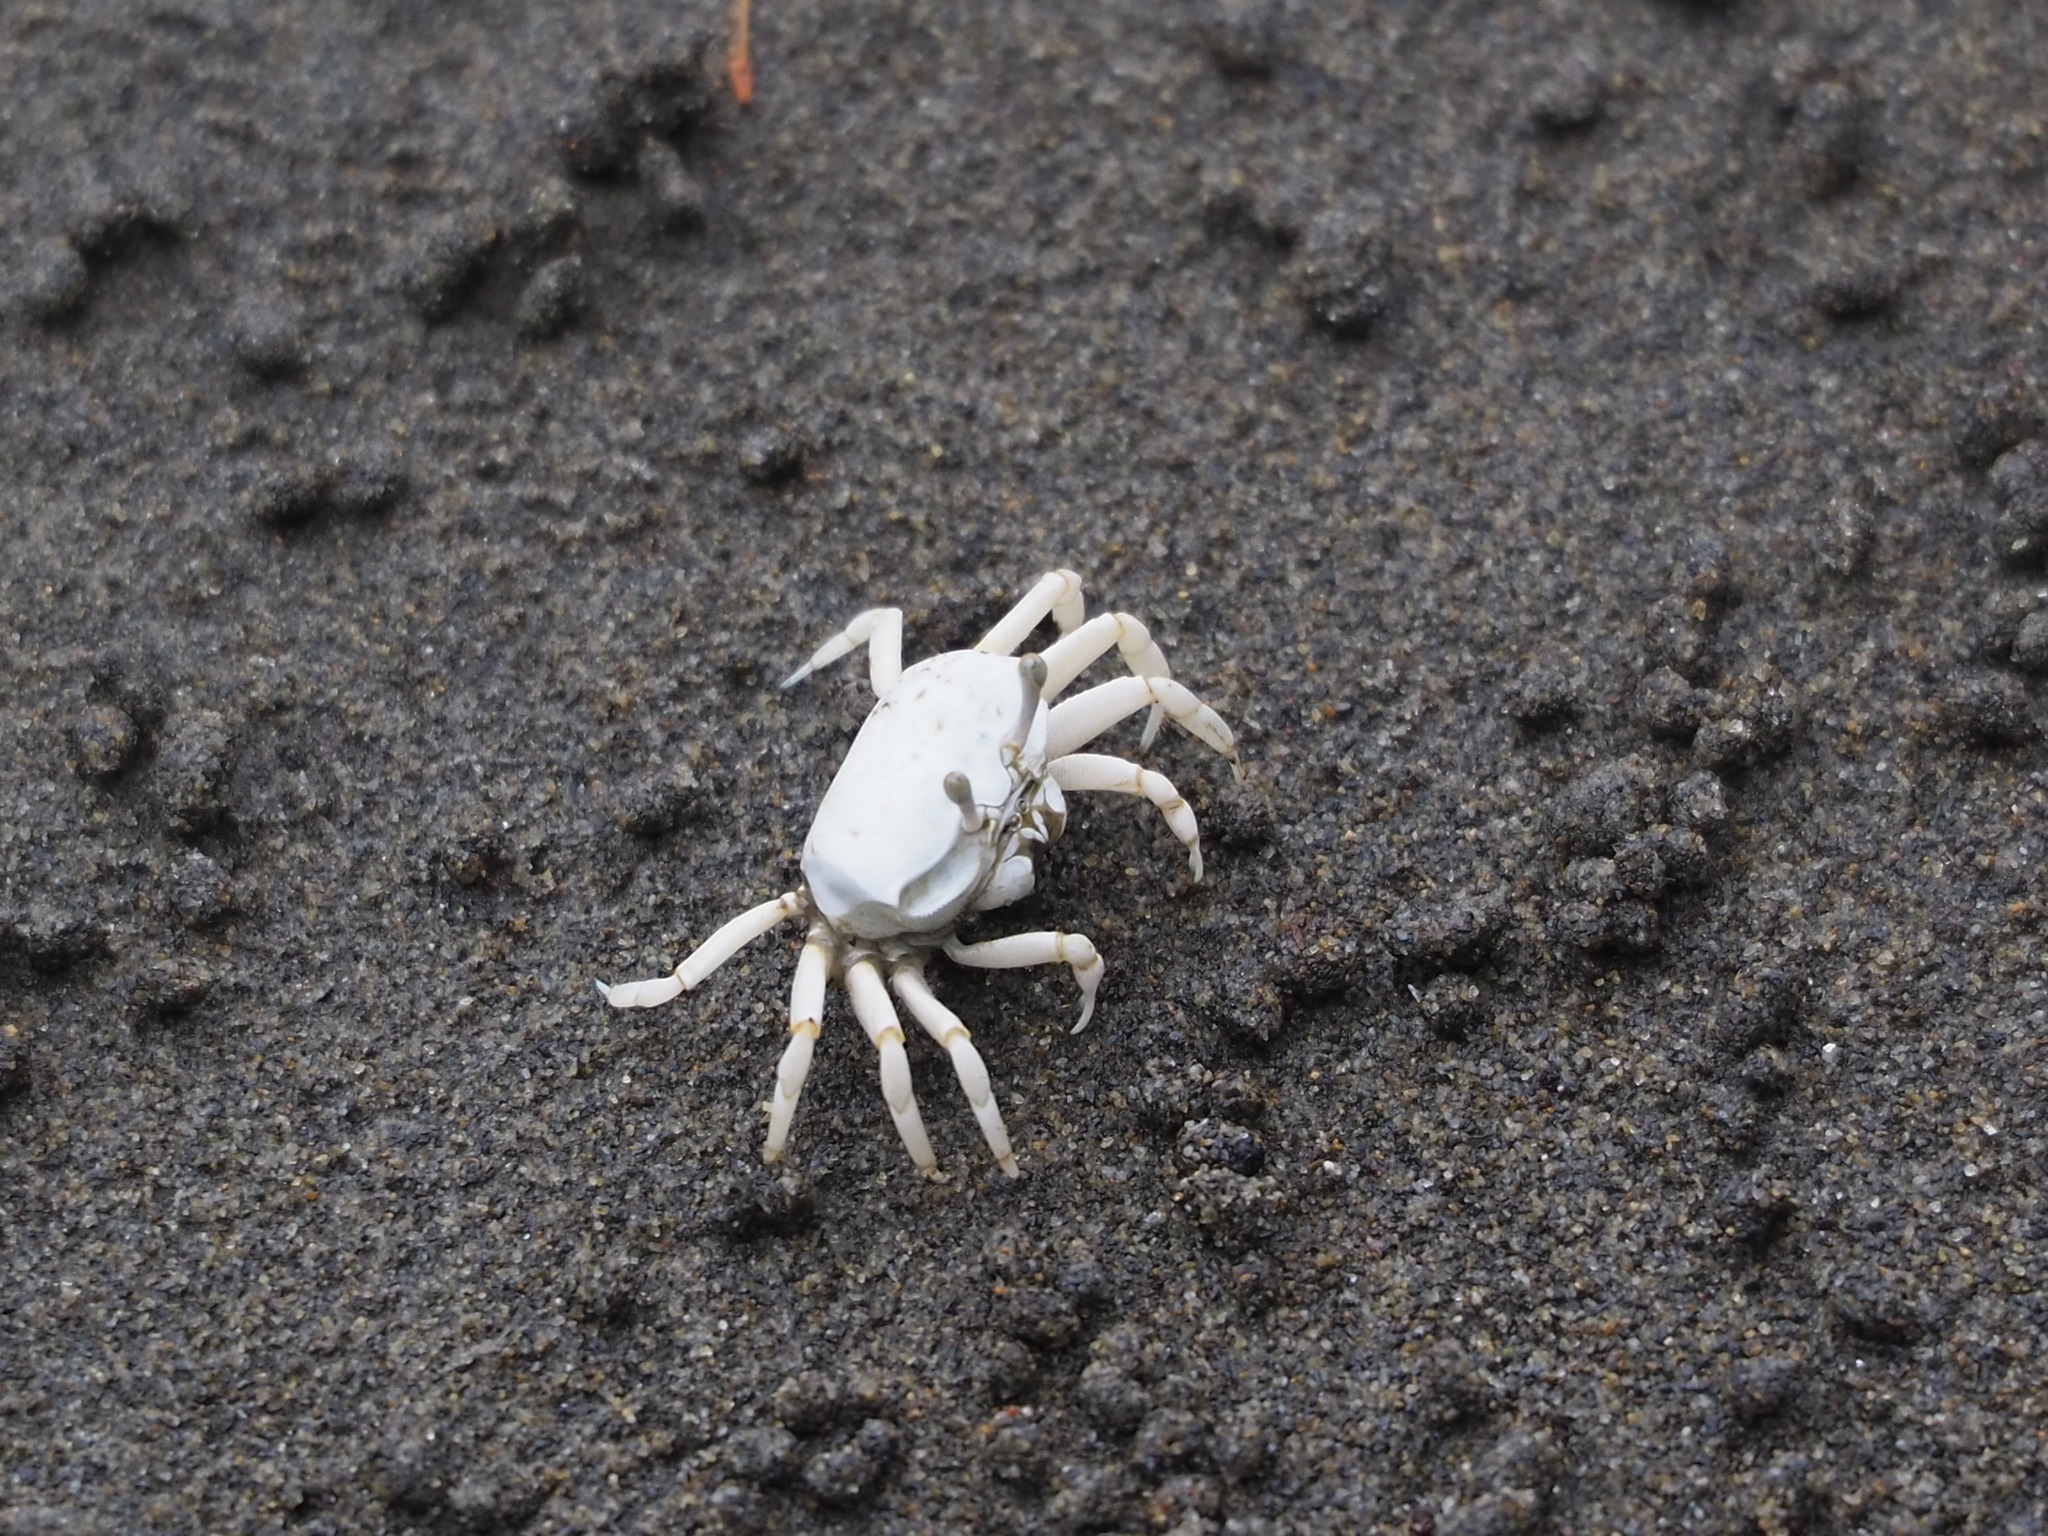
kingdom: Animalia
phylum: Arthropoda
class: Malacostraca
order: Decapoda
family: Ocypodidae
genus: Austruca
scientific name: Austruca lactea
